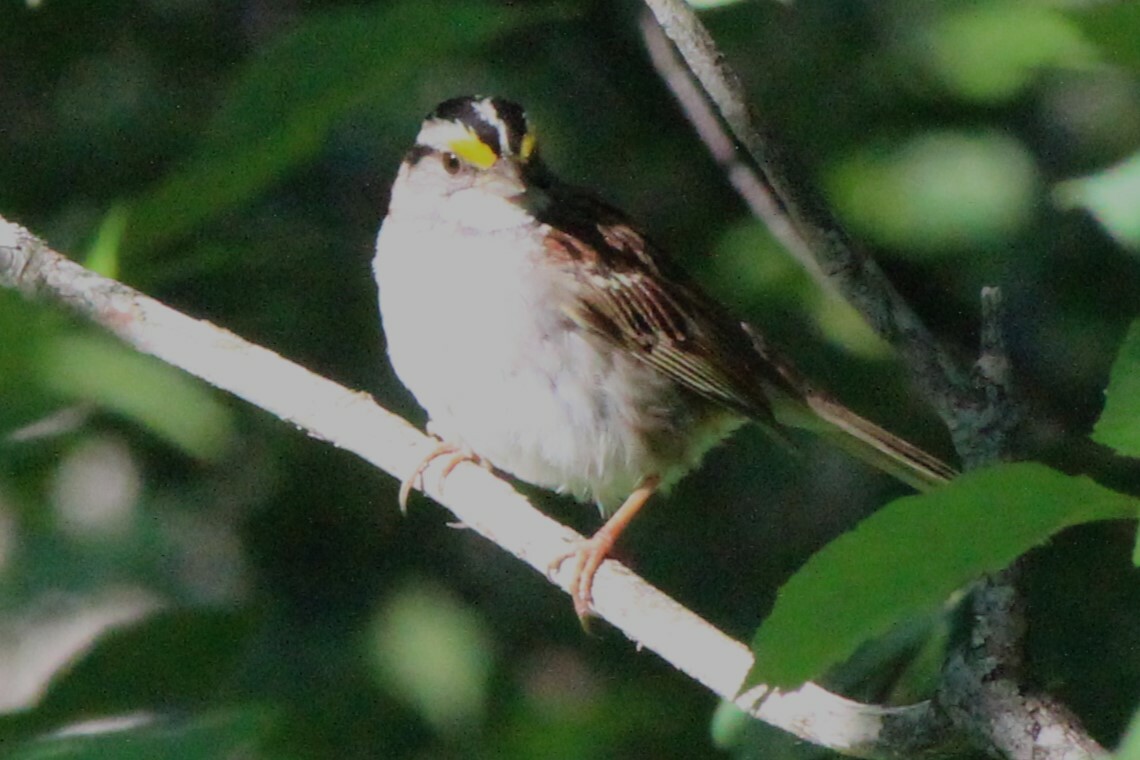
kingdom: Animalia
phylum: Chordata
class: Aves
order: Passeriformes
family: Passerellidae
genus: Zonotrichia
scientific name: Zonotrichia albicollis
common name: White-throated sparrow
